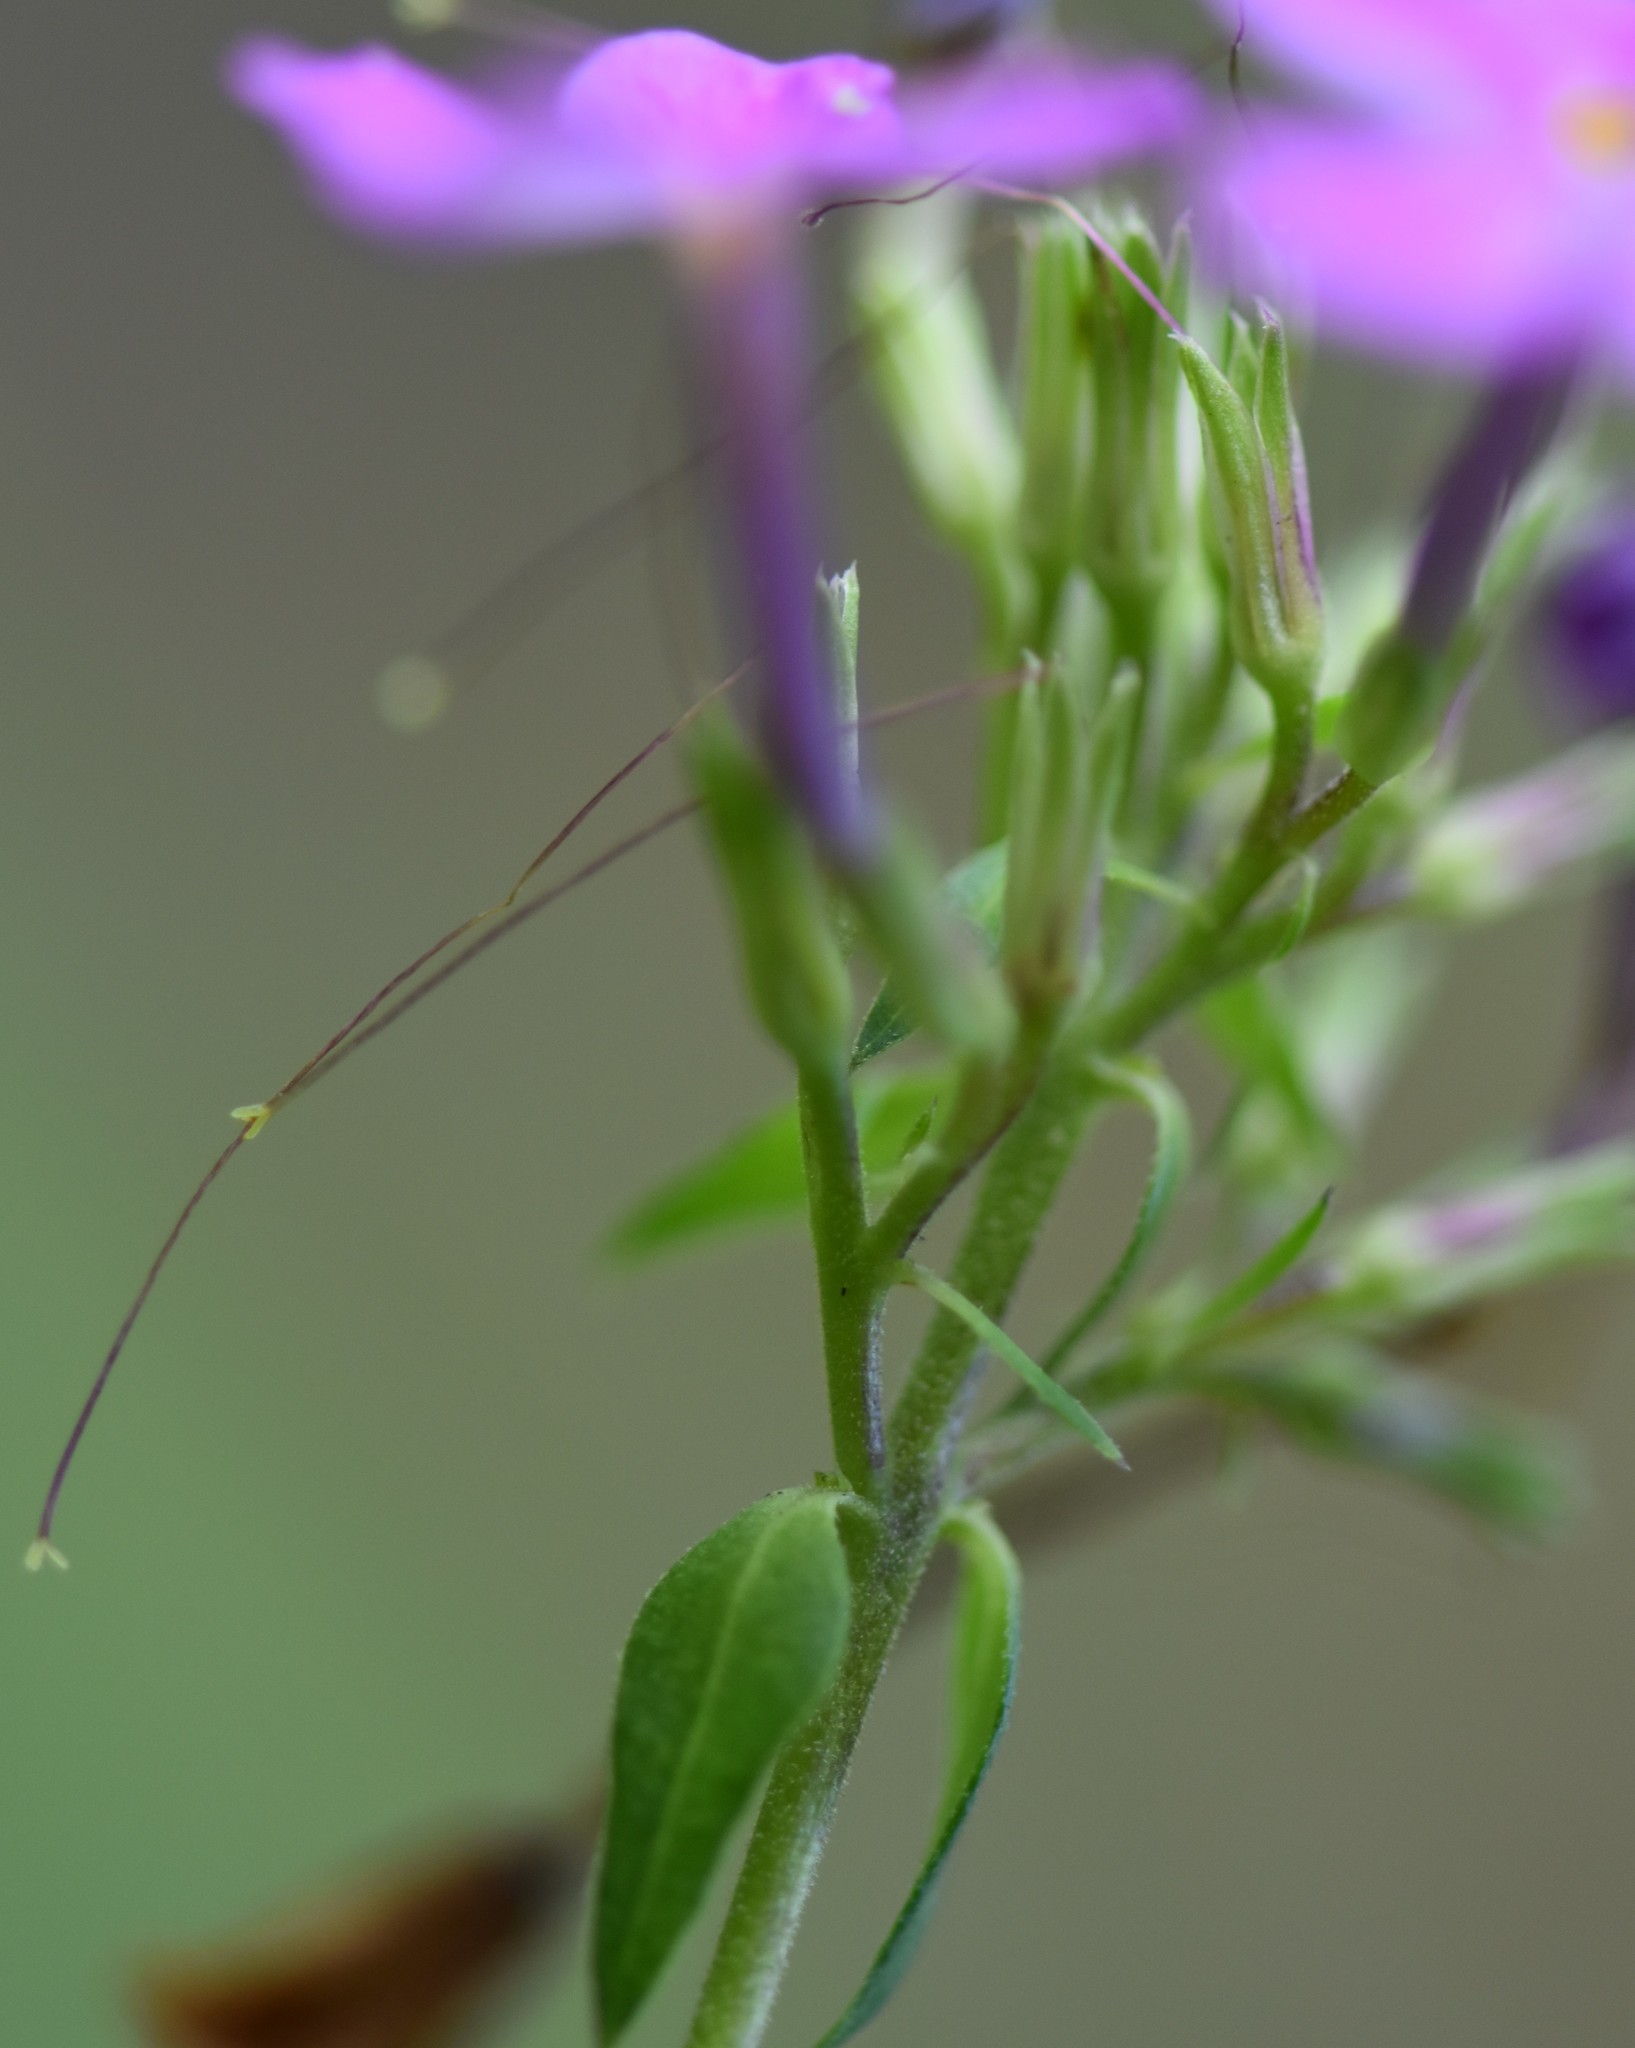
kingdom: Plantae
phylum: Tracheophyta
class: Magnoliopsida
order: Ericales
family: Polemoniaceae
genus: Phlox
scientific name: Phlox carolina
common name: Thick-leaf phlox
